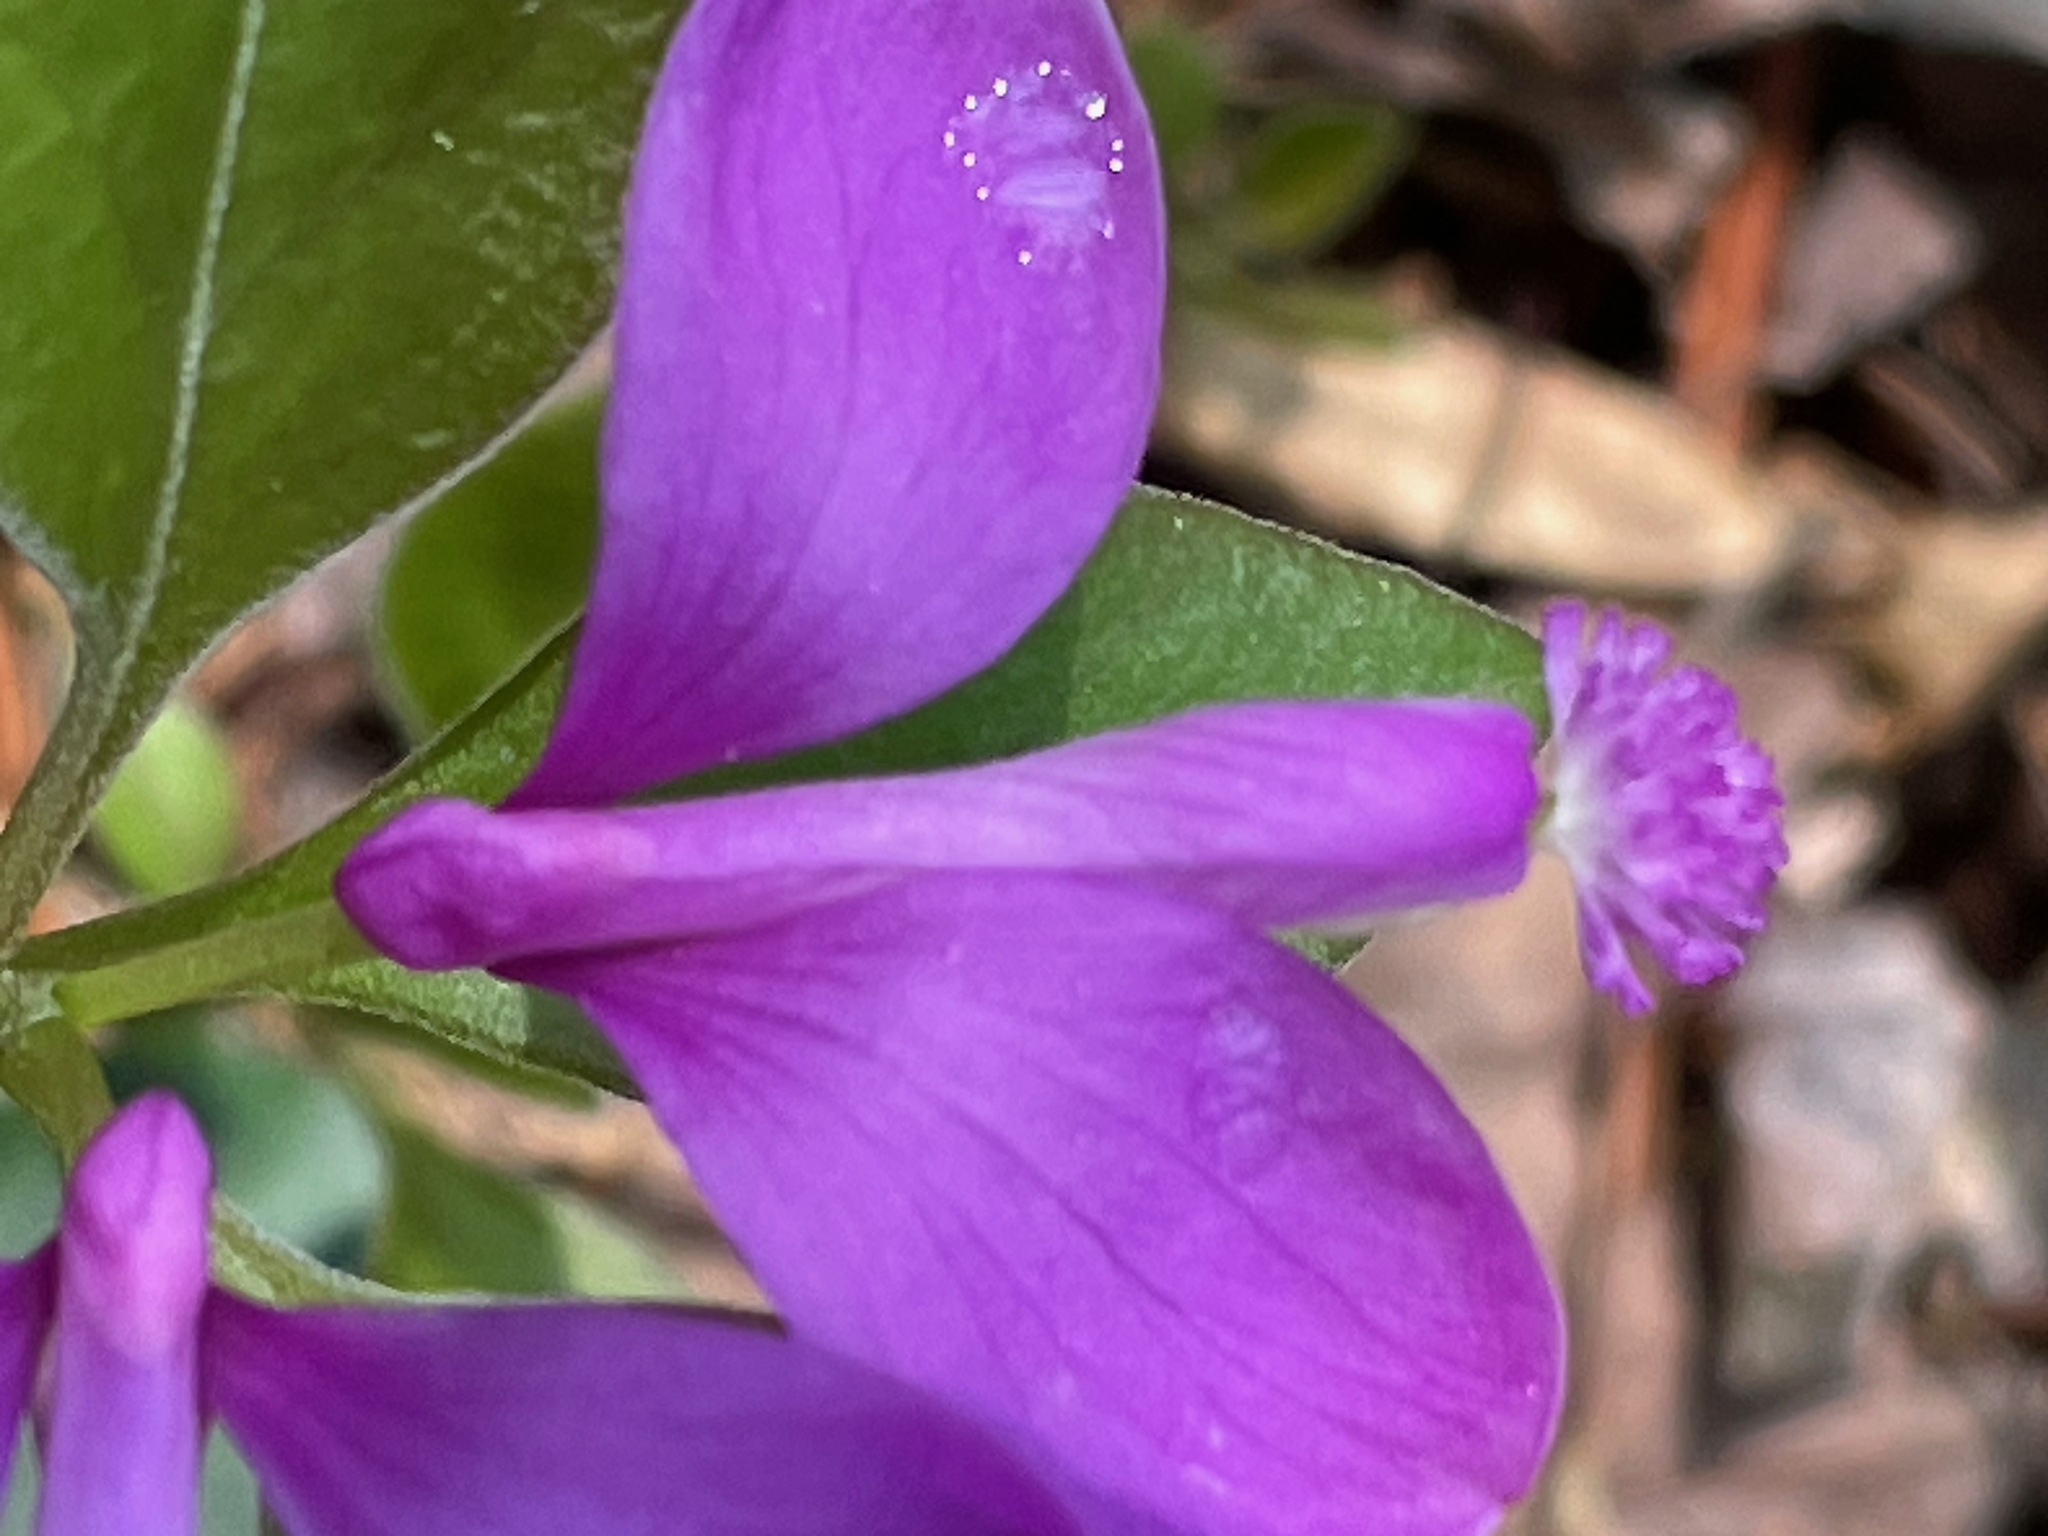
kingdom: Plantae
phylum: Tracheophyta
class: Magnoliopsida
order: Fabales
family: Polygalaceae
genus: Polygaloides
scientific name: Polygaloides paucifolia
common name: Bird-on-the-wing
